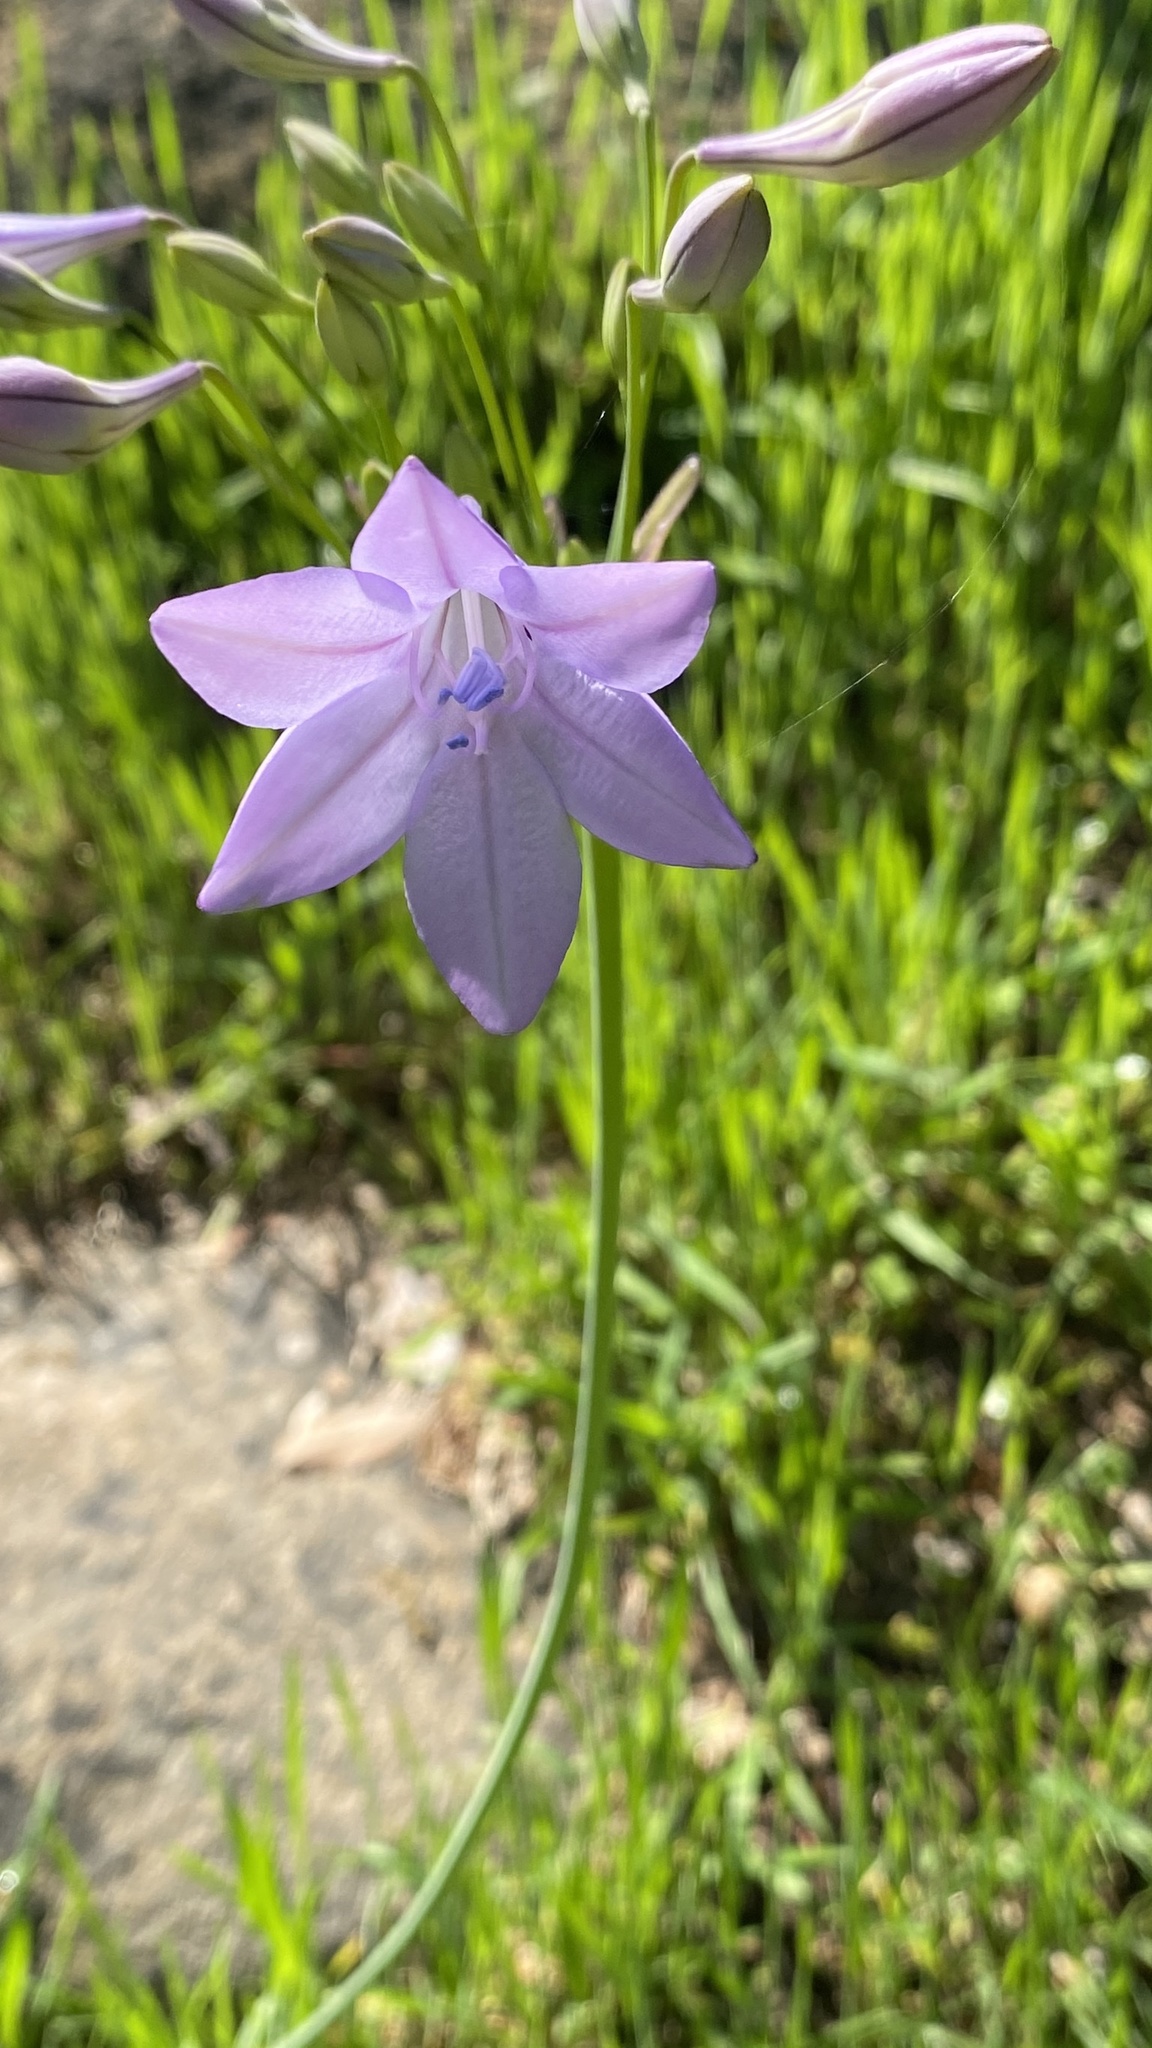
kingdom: Plantae
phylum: Tracheophyta
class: Liliopsida
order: Asparagales
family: Asparagaceae
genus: Triteleia
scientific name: Triteleia laxa
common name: Triplet-lily
